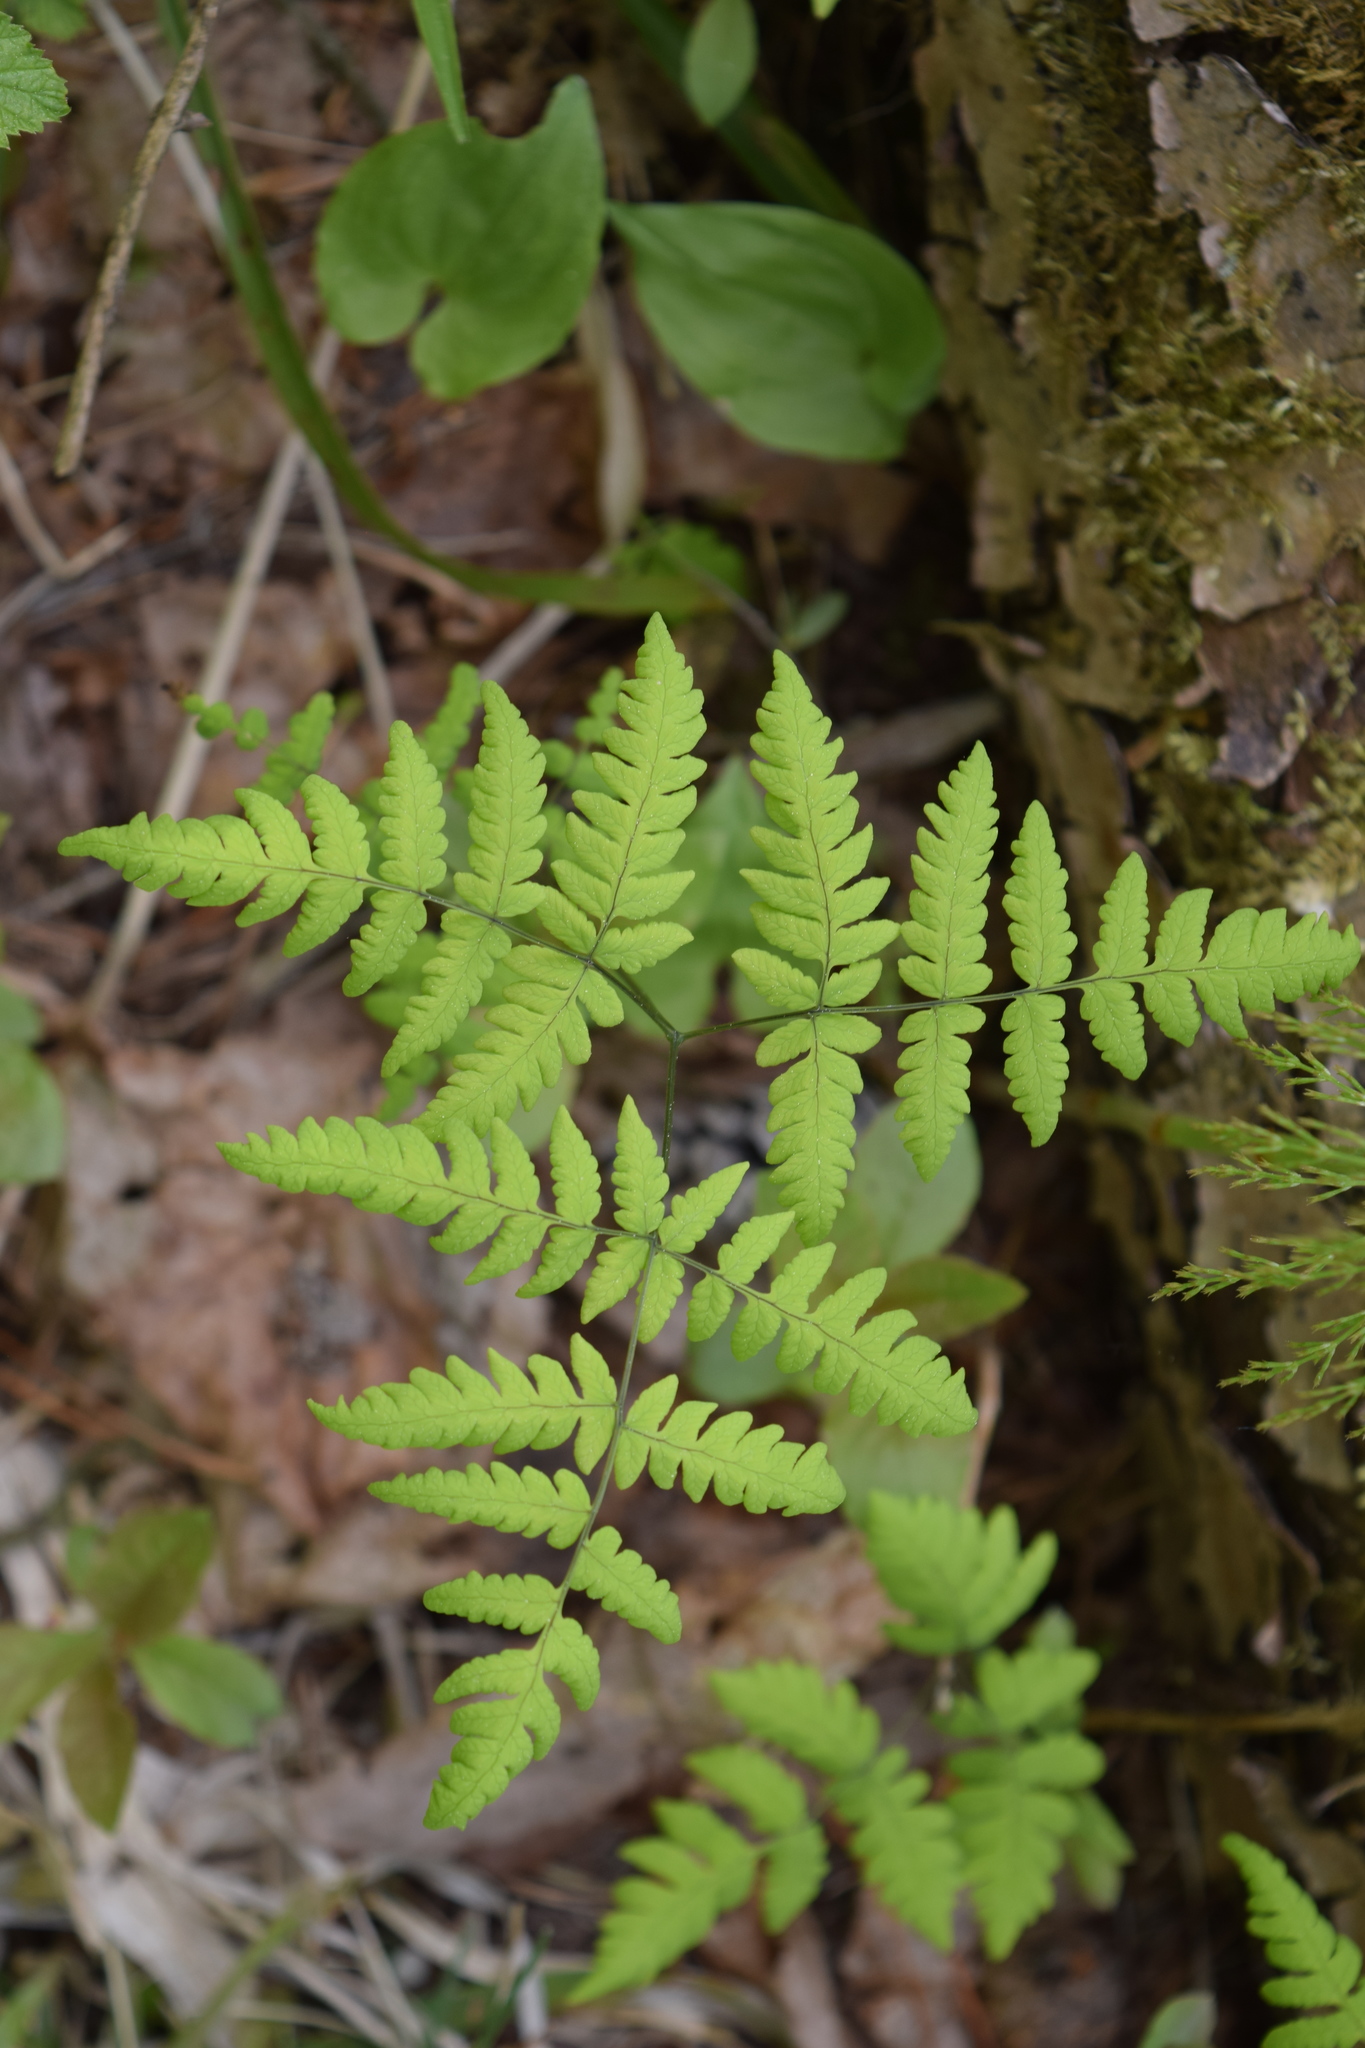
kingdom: Plantae
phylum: Tracheophyta
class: Polypodiopsida
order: Polypodiales
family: Cystopteridaceae
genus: Gymnocarpium
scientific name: Gymnocarpium dryopteris
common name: Oak fern
